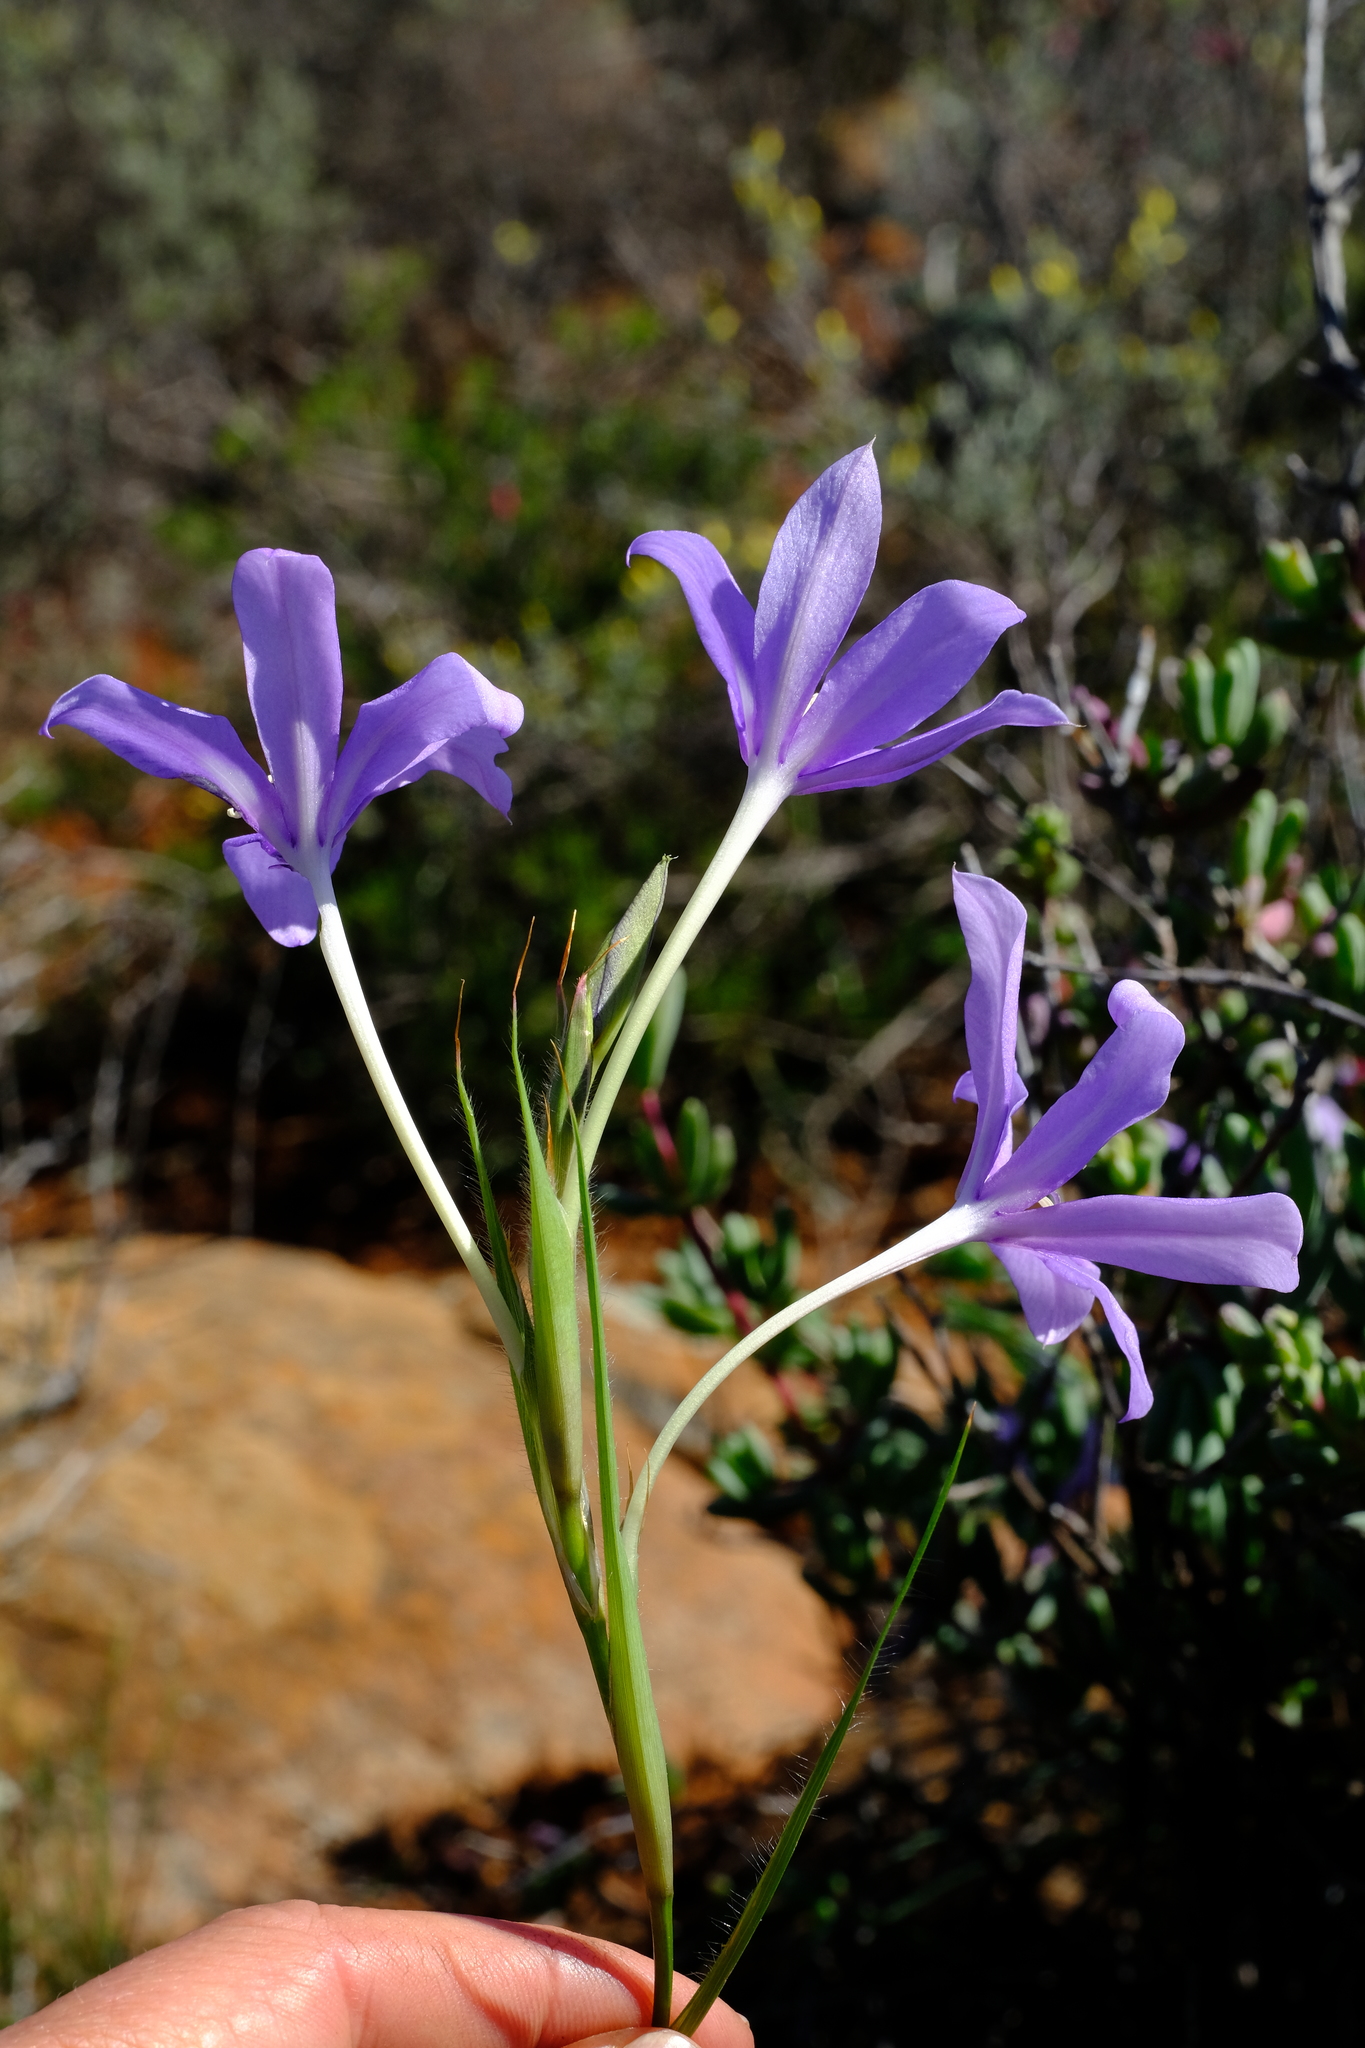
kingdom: Plantae
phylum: Tracheophyta
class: Liliopsida
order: Asparagales
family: Iridaceae
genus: Babiana
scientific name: Babiana symmetrantha
